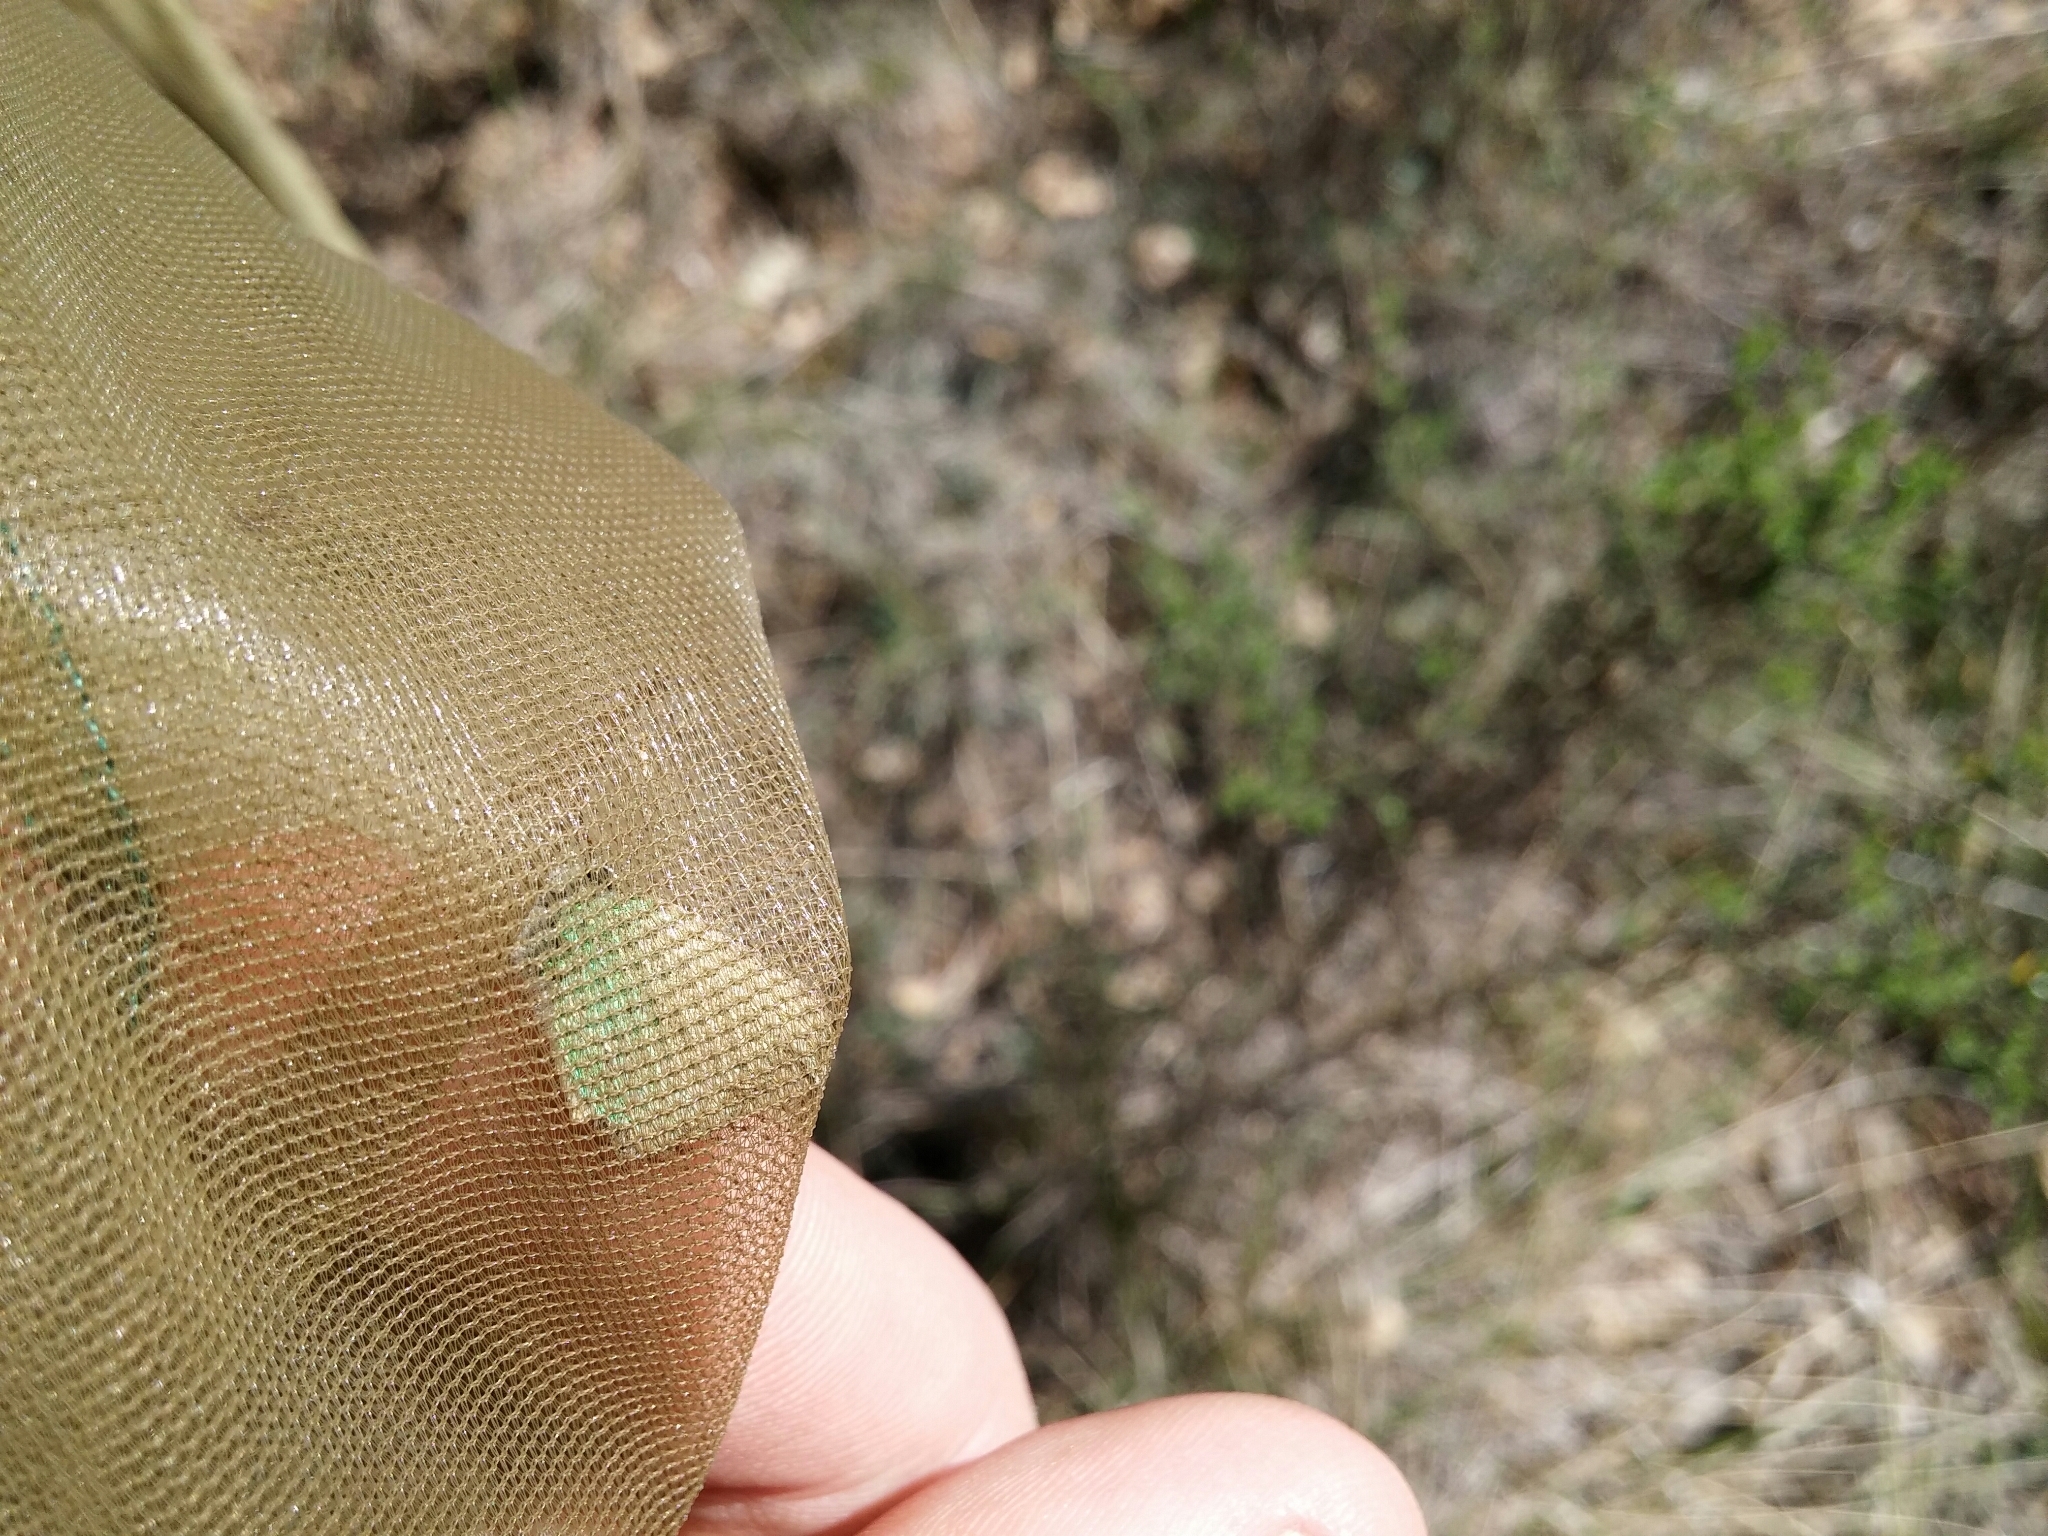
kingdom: Animalia
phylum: Arthropoda
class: Insecta
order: Lepidoptera
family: Lycaenidae
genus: Callophrys
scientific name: Callophrys rubi
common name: Green hairstreak
